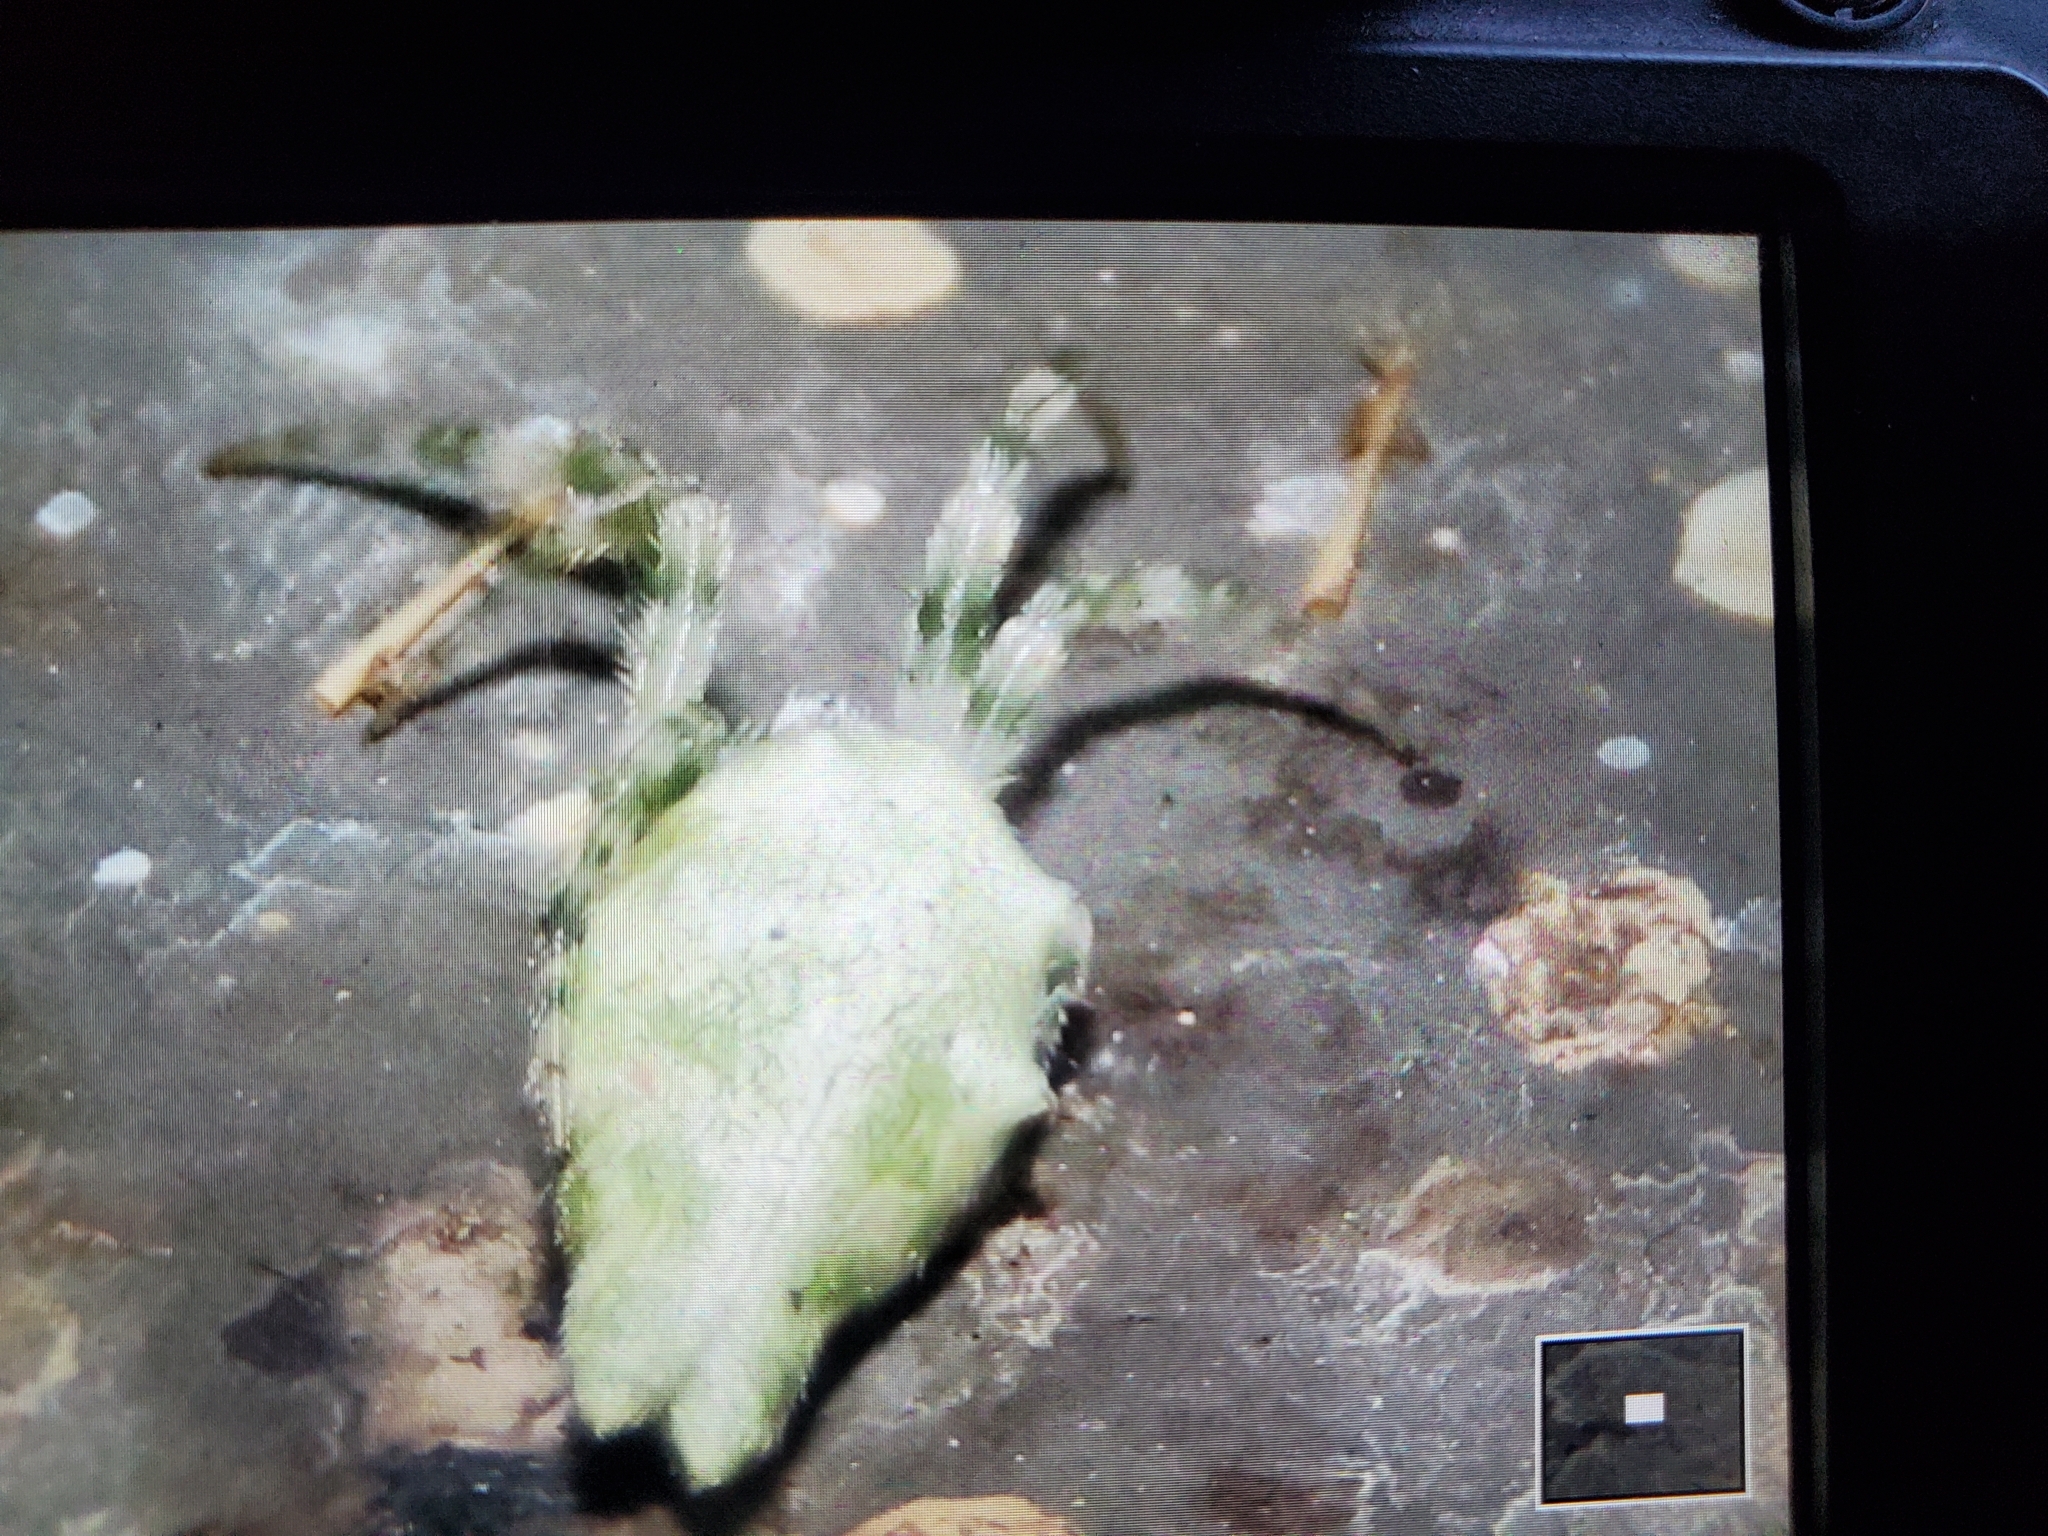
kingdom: Animalia
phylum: Arthropoda
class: Arachnida
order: Araneae
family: Araneidae
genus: Allocyclosa
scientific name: Allocyclosa bifurca
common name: Orb weavers
